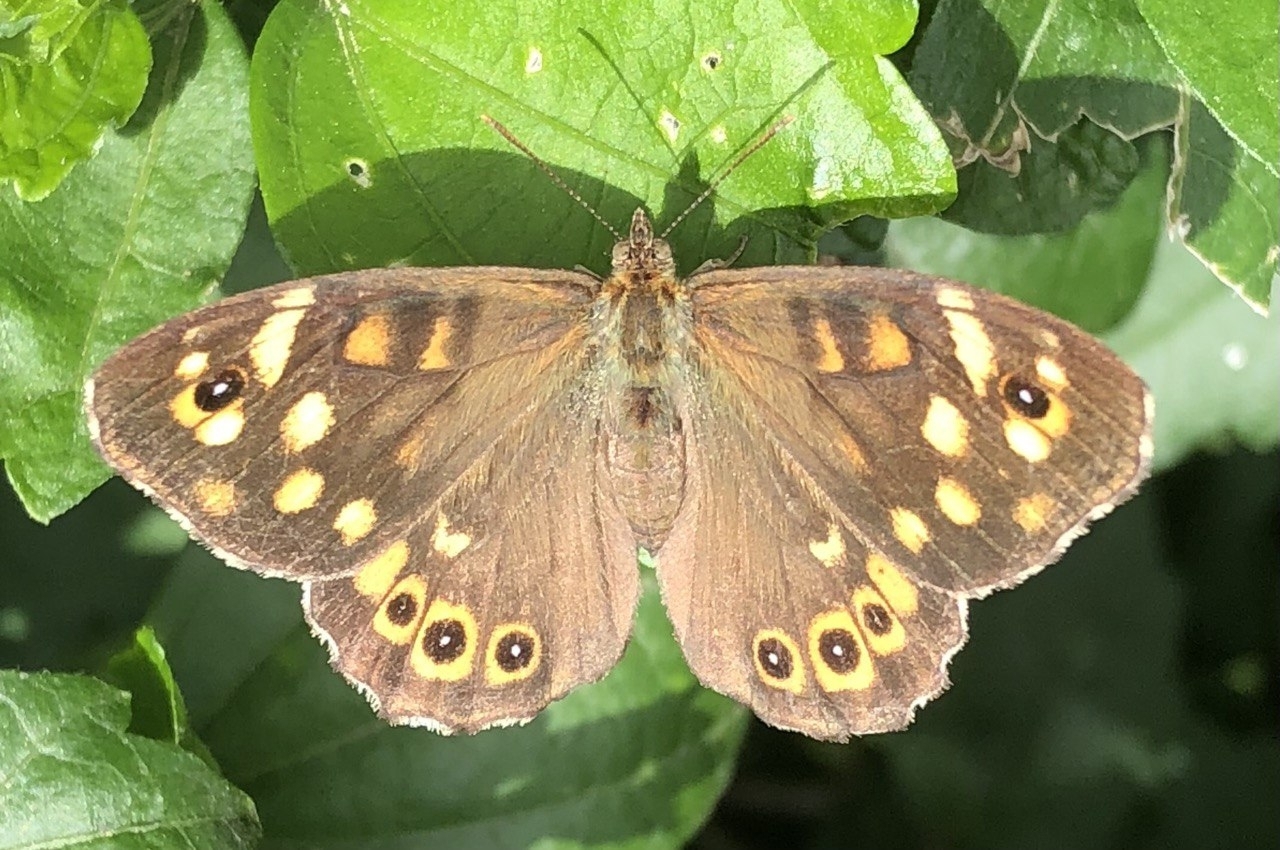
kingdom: Animalia
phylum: Arthropoda
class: Insecta
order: Lepidoptera
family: Nymphalidae
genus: Pararge
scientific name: Pararge aegeria
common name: Speckled wood
